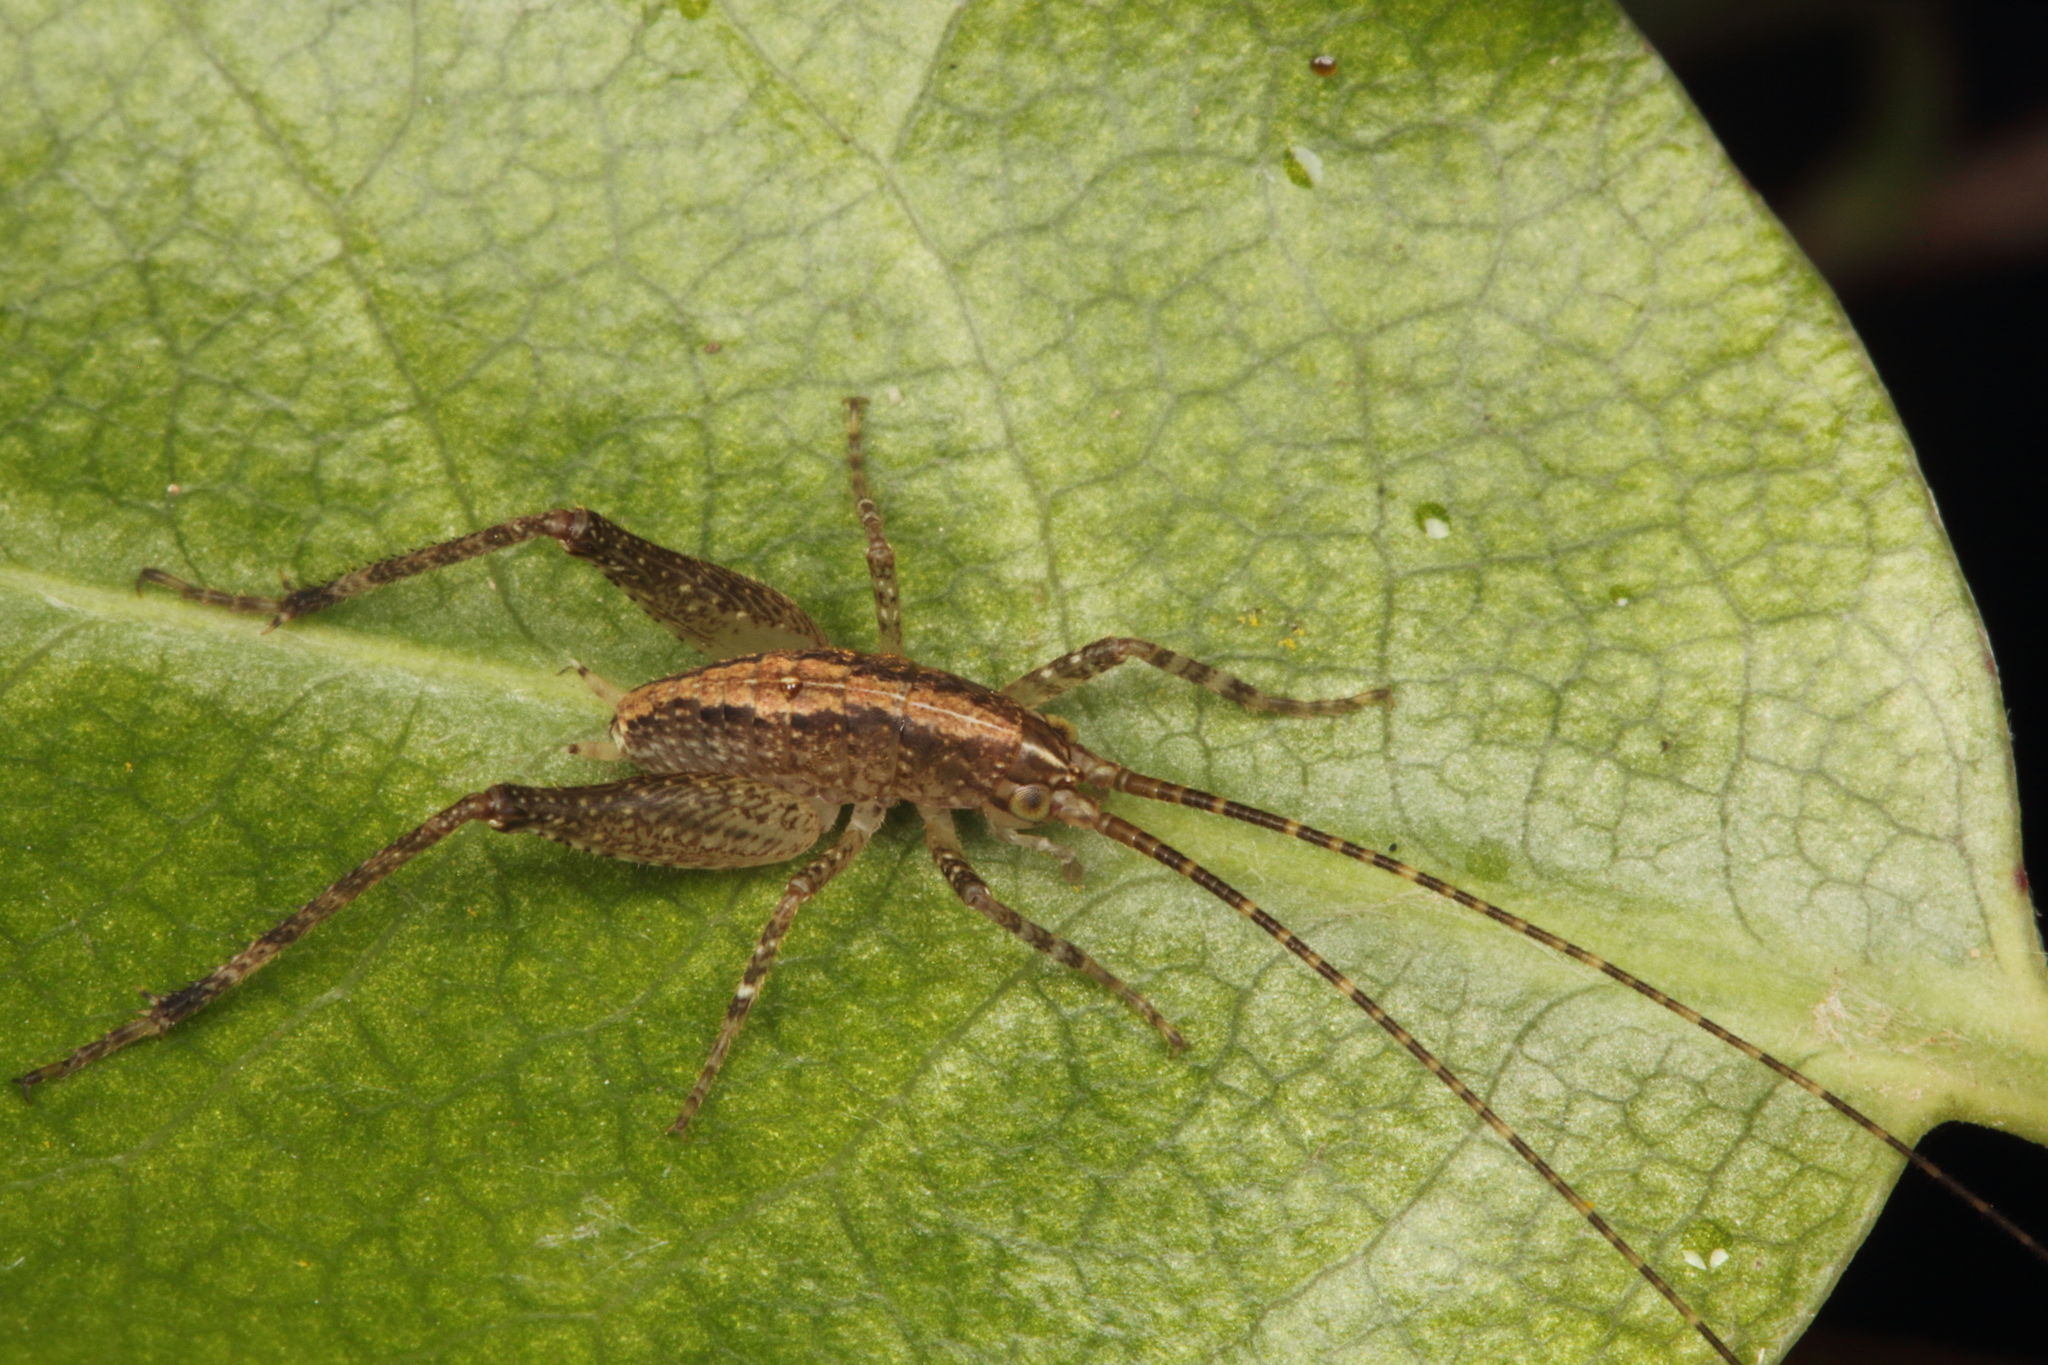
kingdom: Animalia
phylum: Arthropoda
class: Insecta
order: Orthoptera
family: Rhaphidophoridae
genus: Isoplectron
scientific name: Isoplectron armatum
